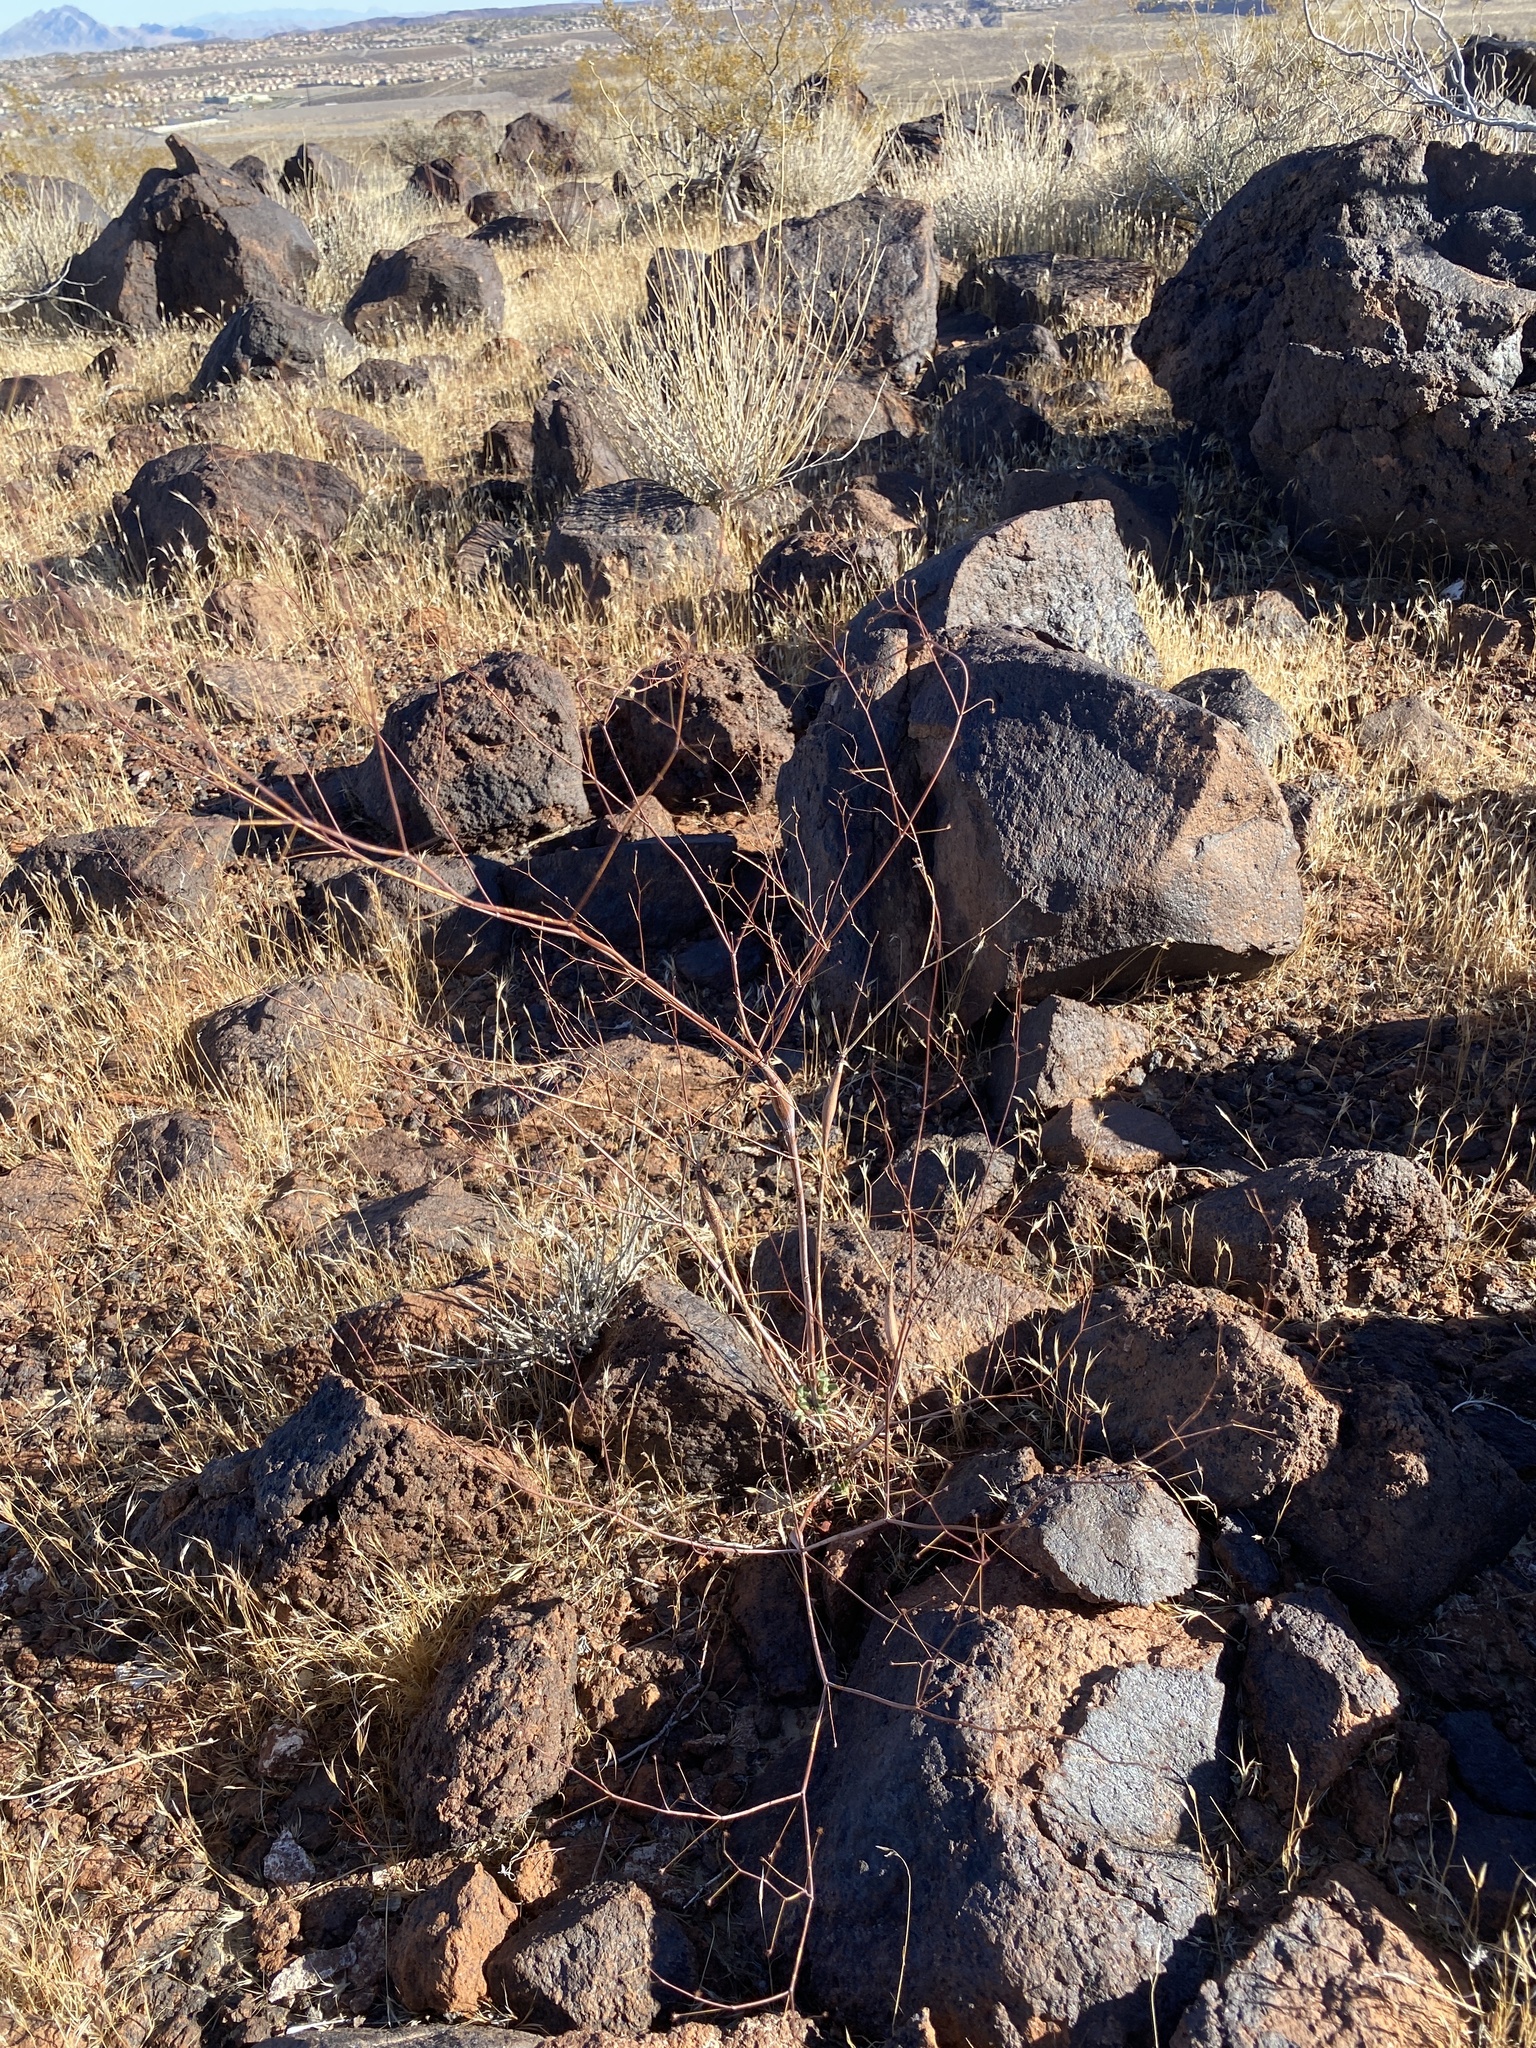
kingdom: Plantae
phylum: Tracheophyta
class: Magnoliopsida
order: Caryophyllales
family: Polygonaceae
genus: Eriogonum
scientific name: Eriogonum inflatum
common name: Desert trumpet
